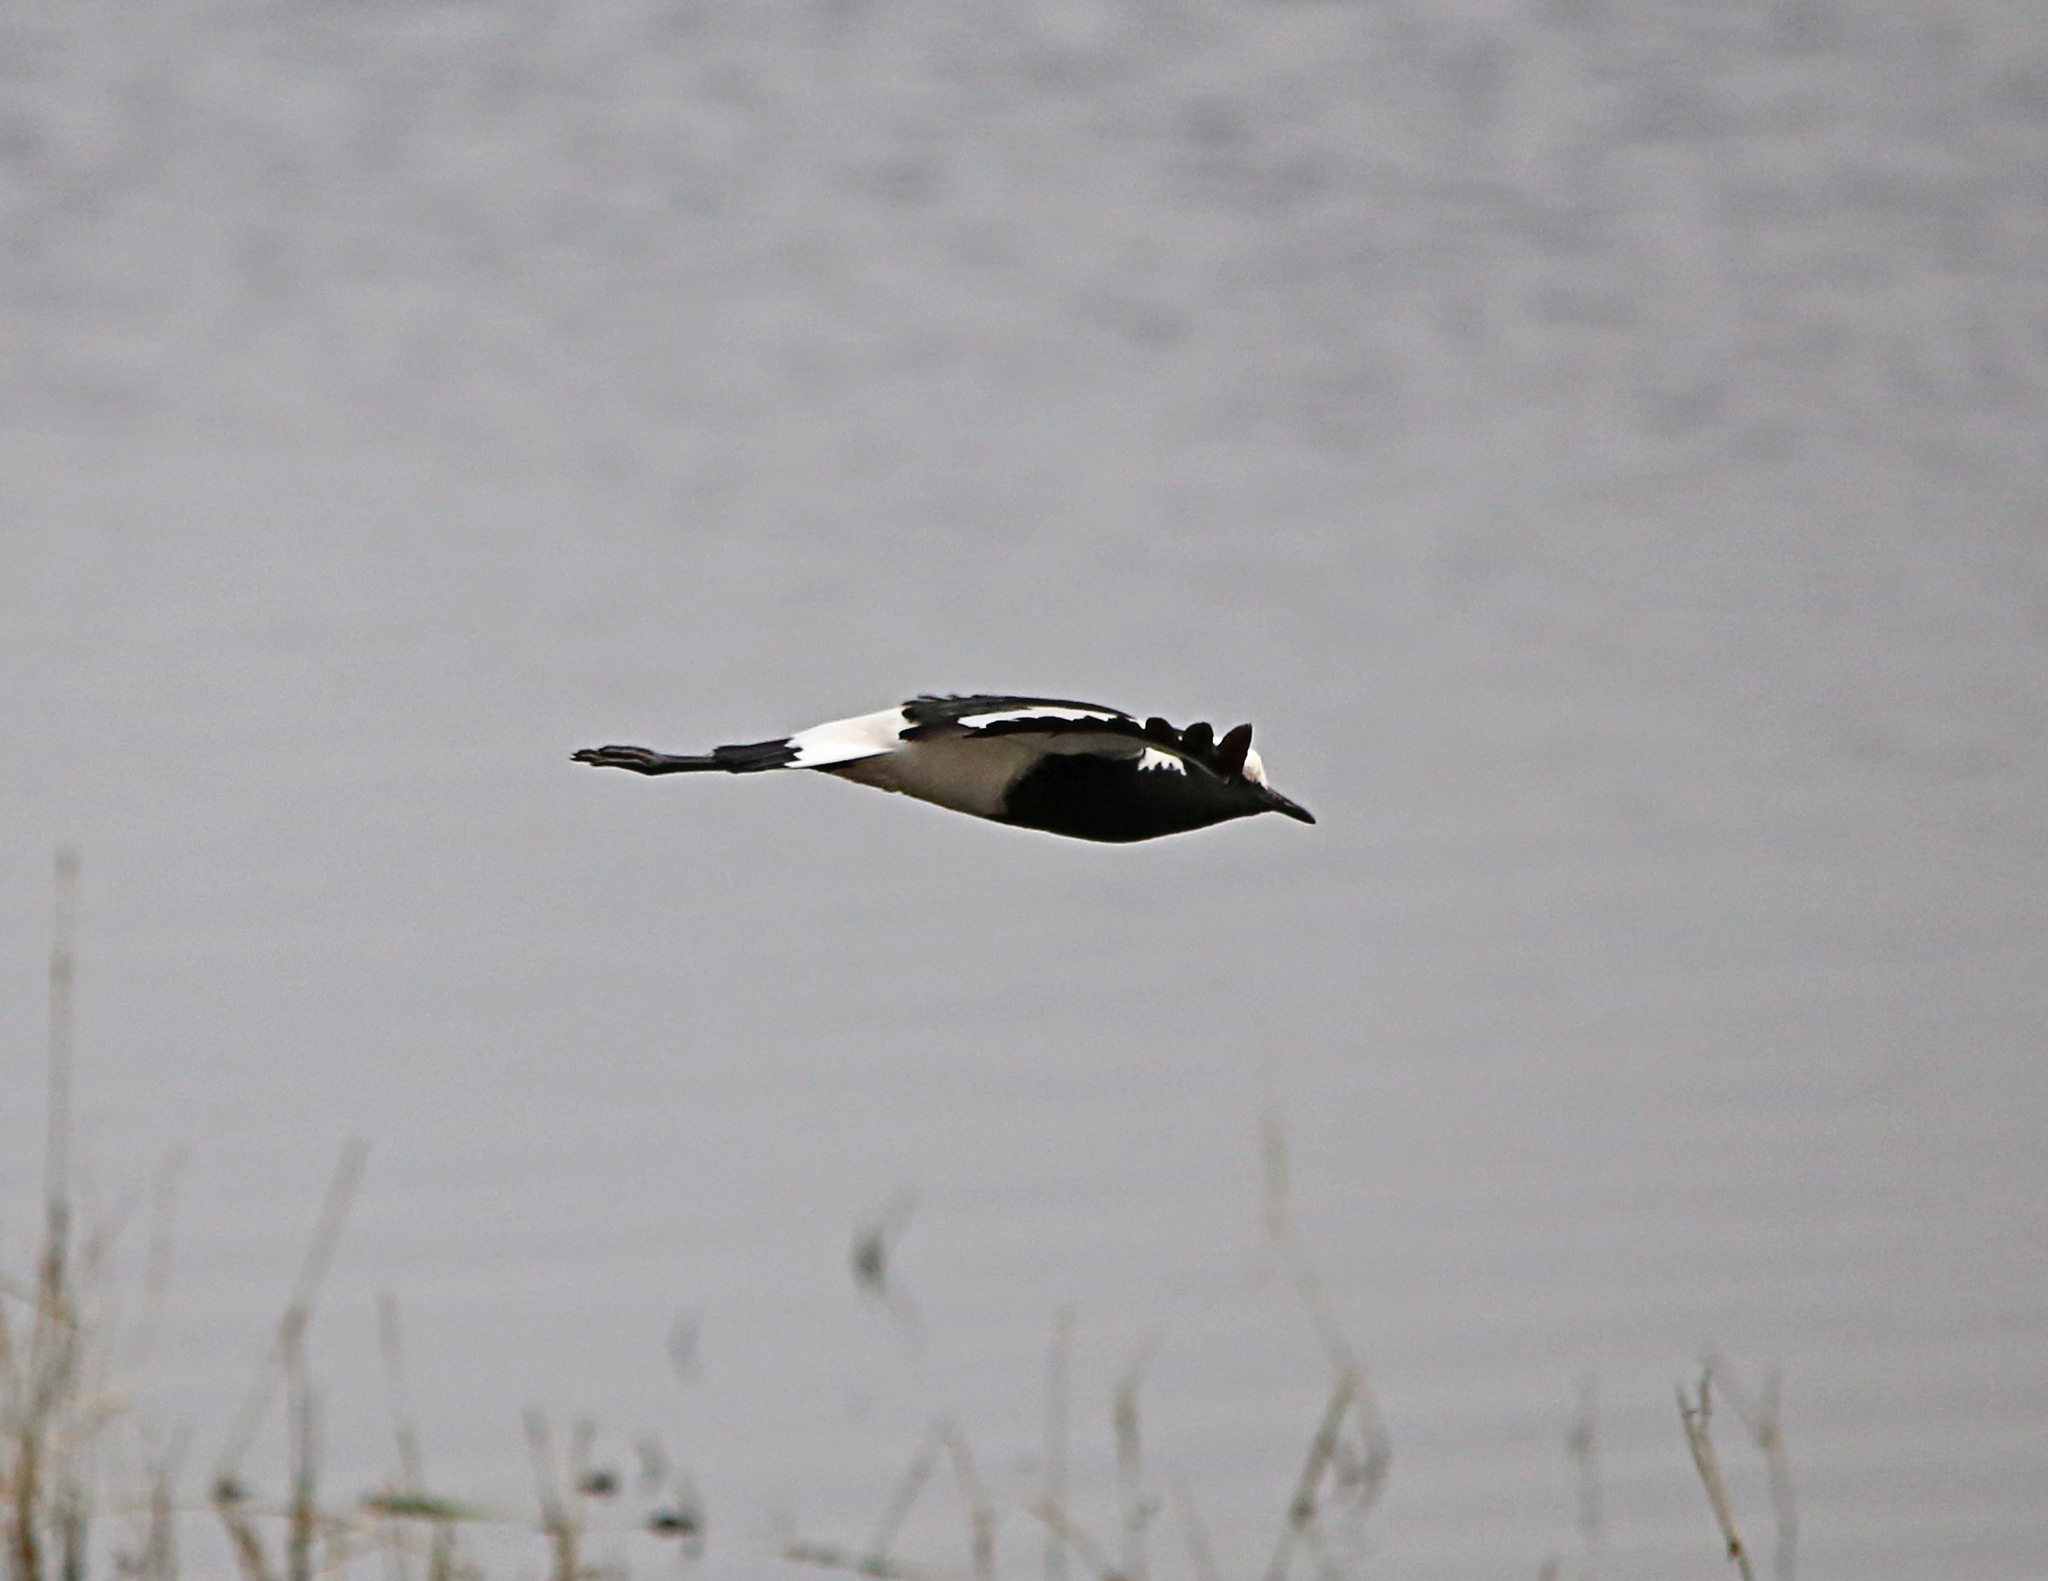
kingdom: Animalia
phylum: Chordata
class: Aves
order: Charadriiformes
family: Charadriidae
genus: Vanellus
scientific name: Vanellus armatus
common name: Blacksmith lapwing
